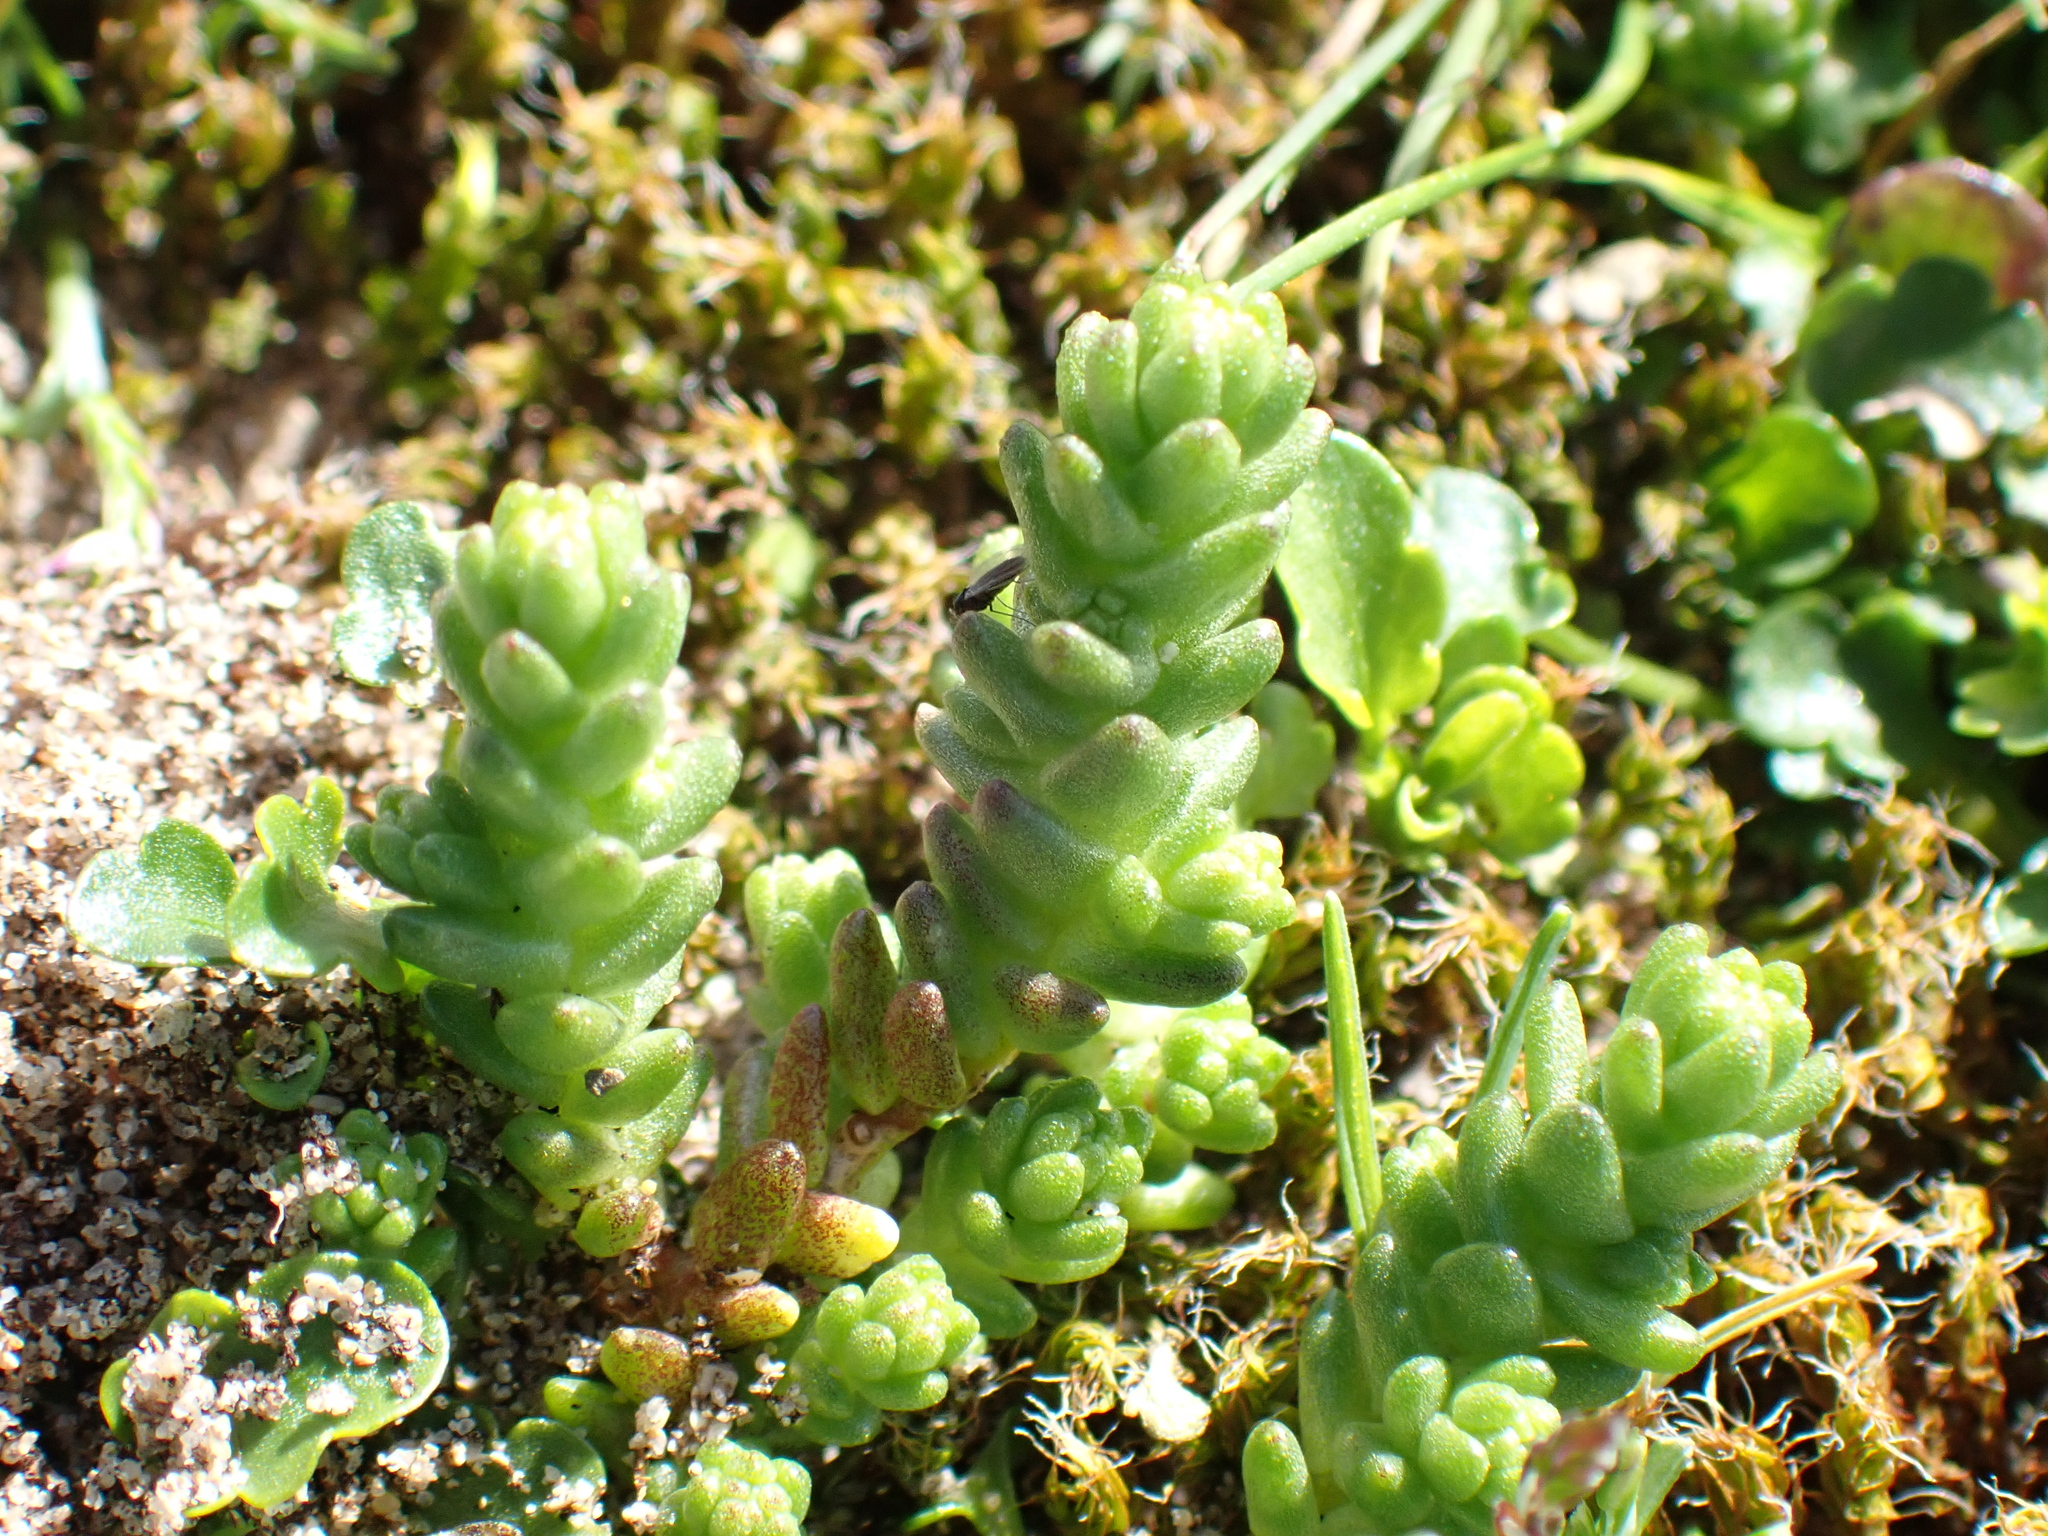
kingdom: Plantae
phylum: Tracheophyta
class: Magnoliopsida
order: Saxifragales
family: Crassulaceae
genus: Sedum
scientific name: Sedum acre
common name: Biting stonecrop
